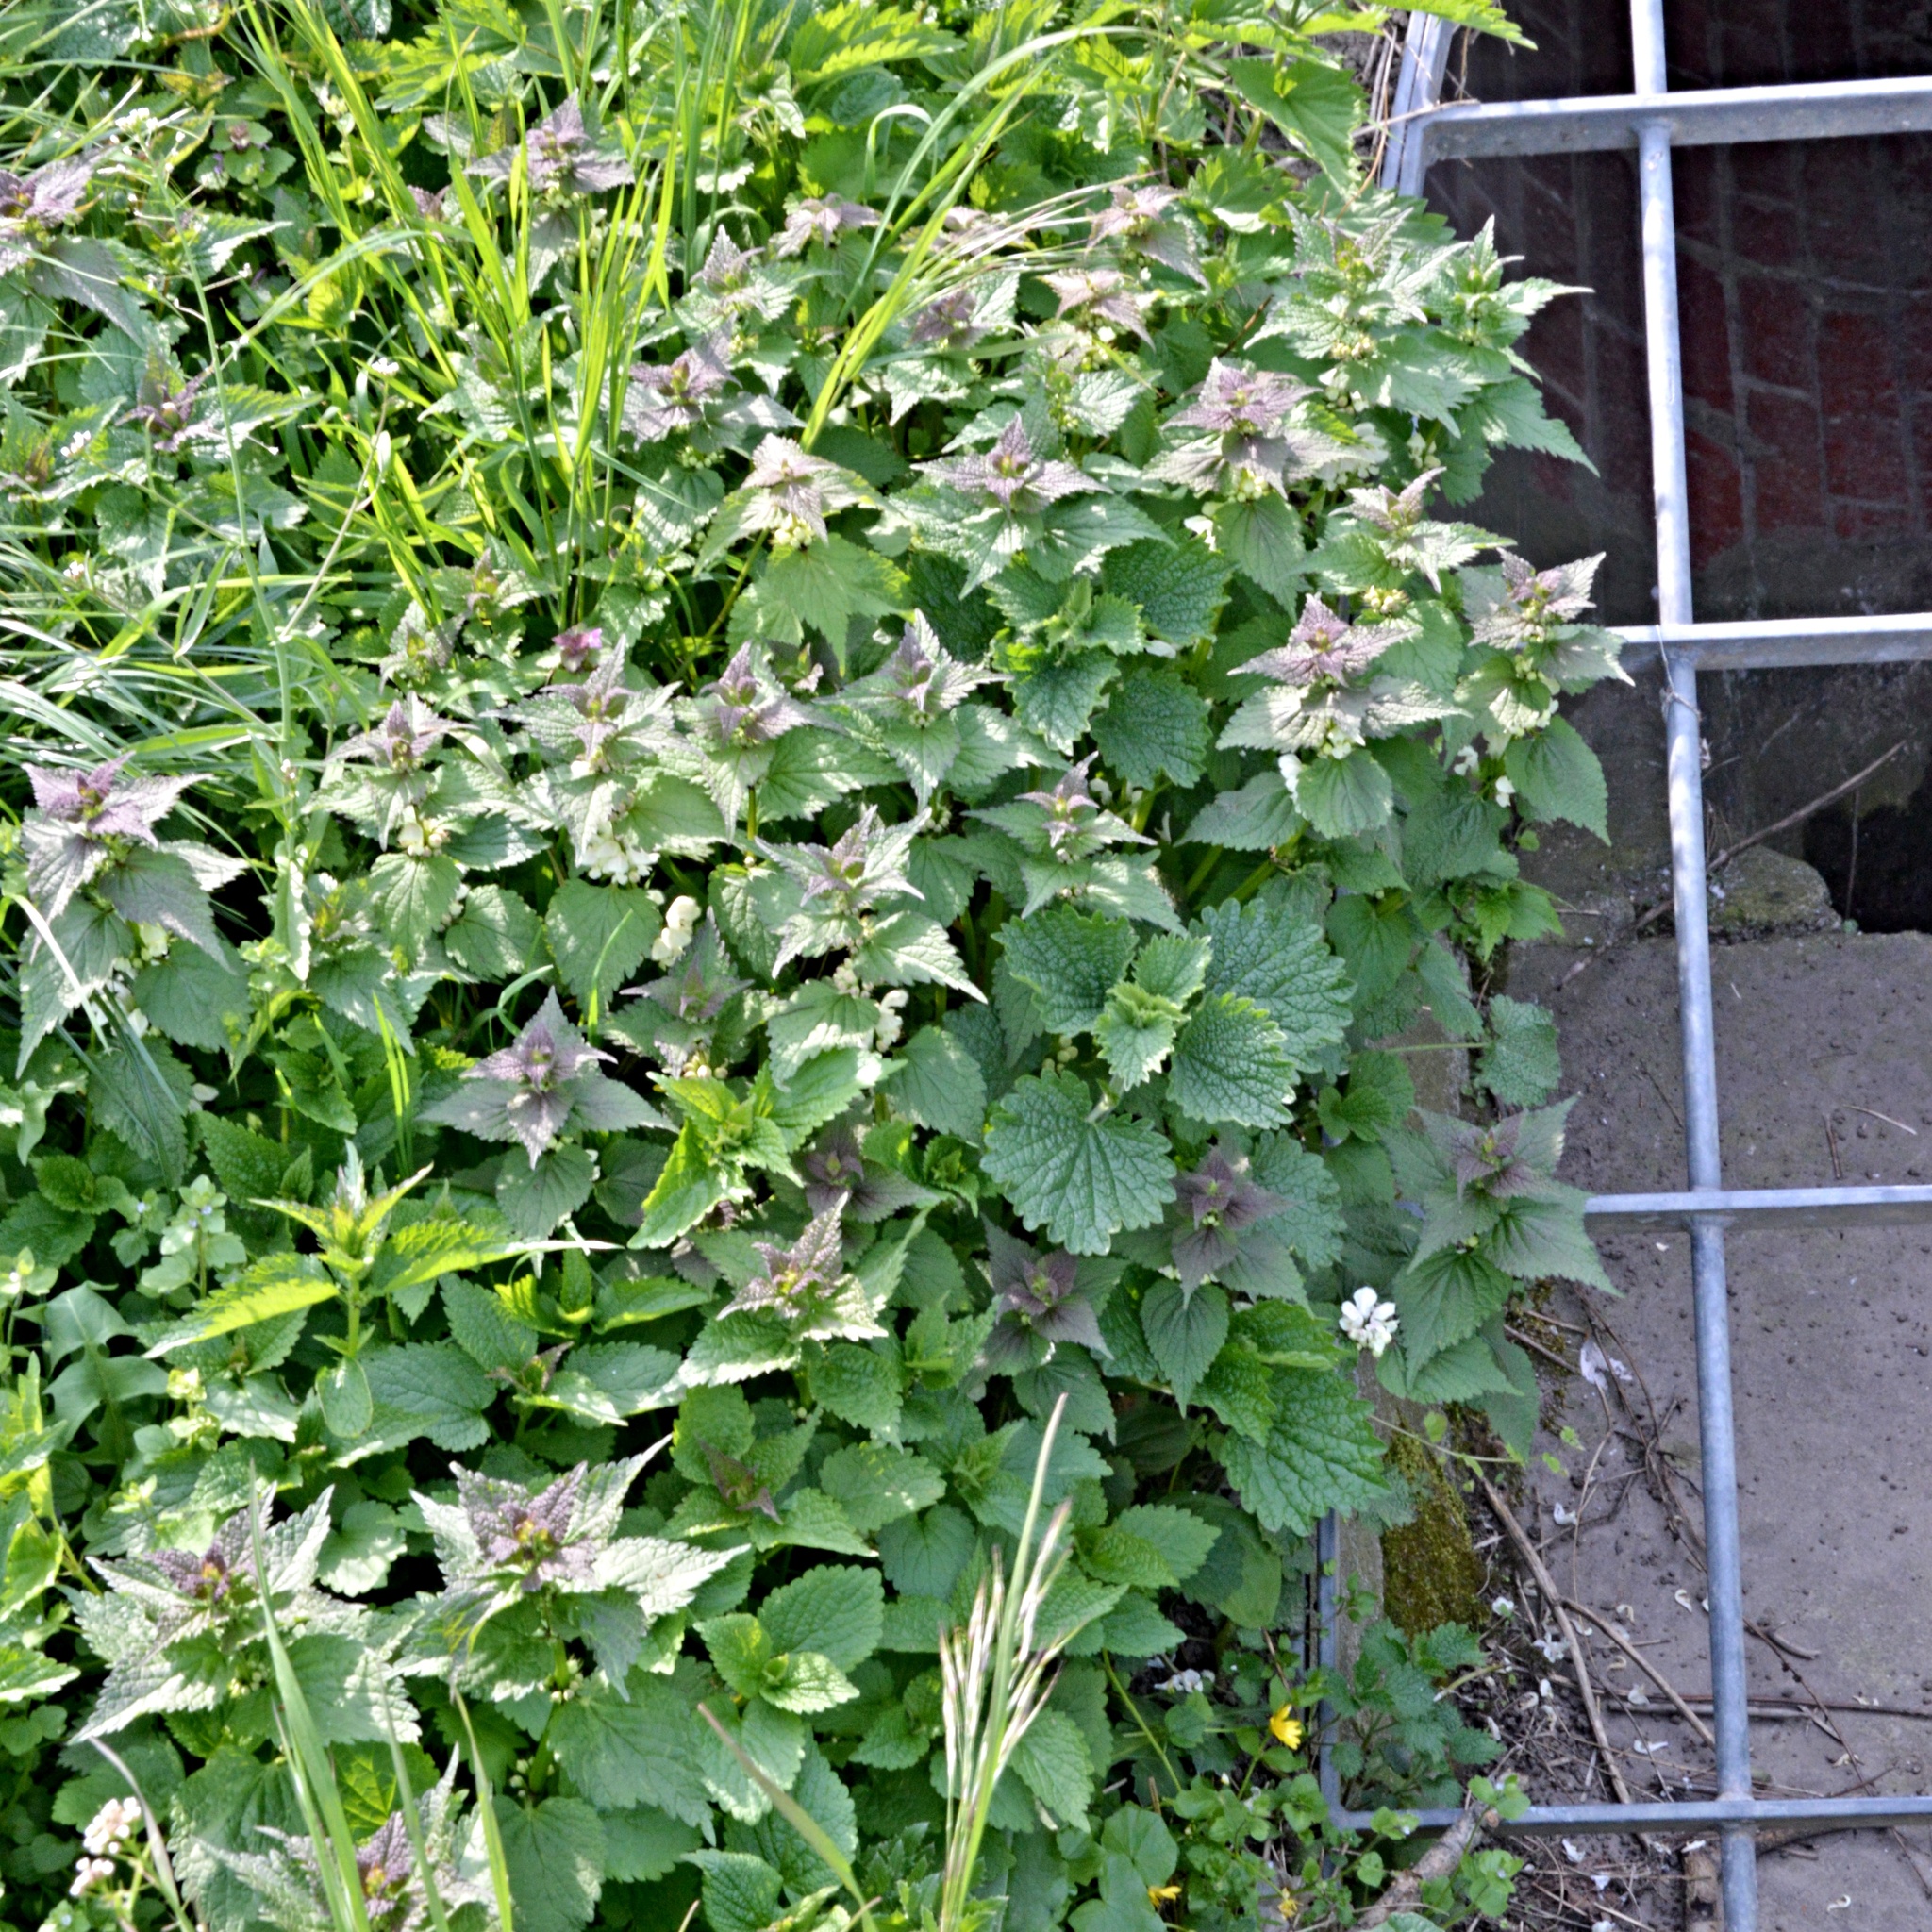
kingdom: Plantae
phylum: Tracheophyta
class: Magnoliopsida
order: Lamiales
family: Lamiaceae
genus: Lamium
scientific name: Lamium album
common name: White dead-nettle
